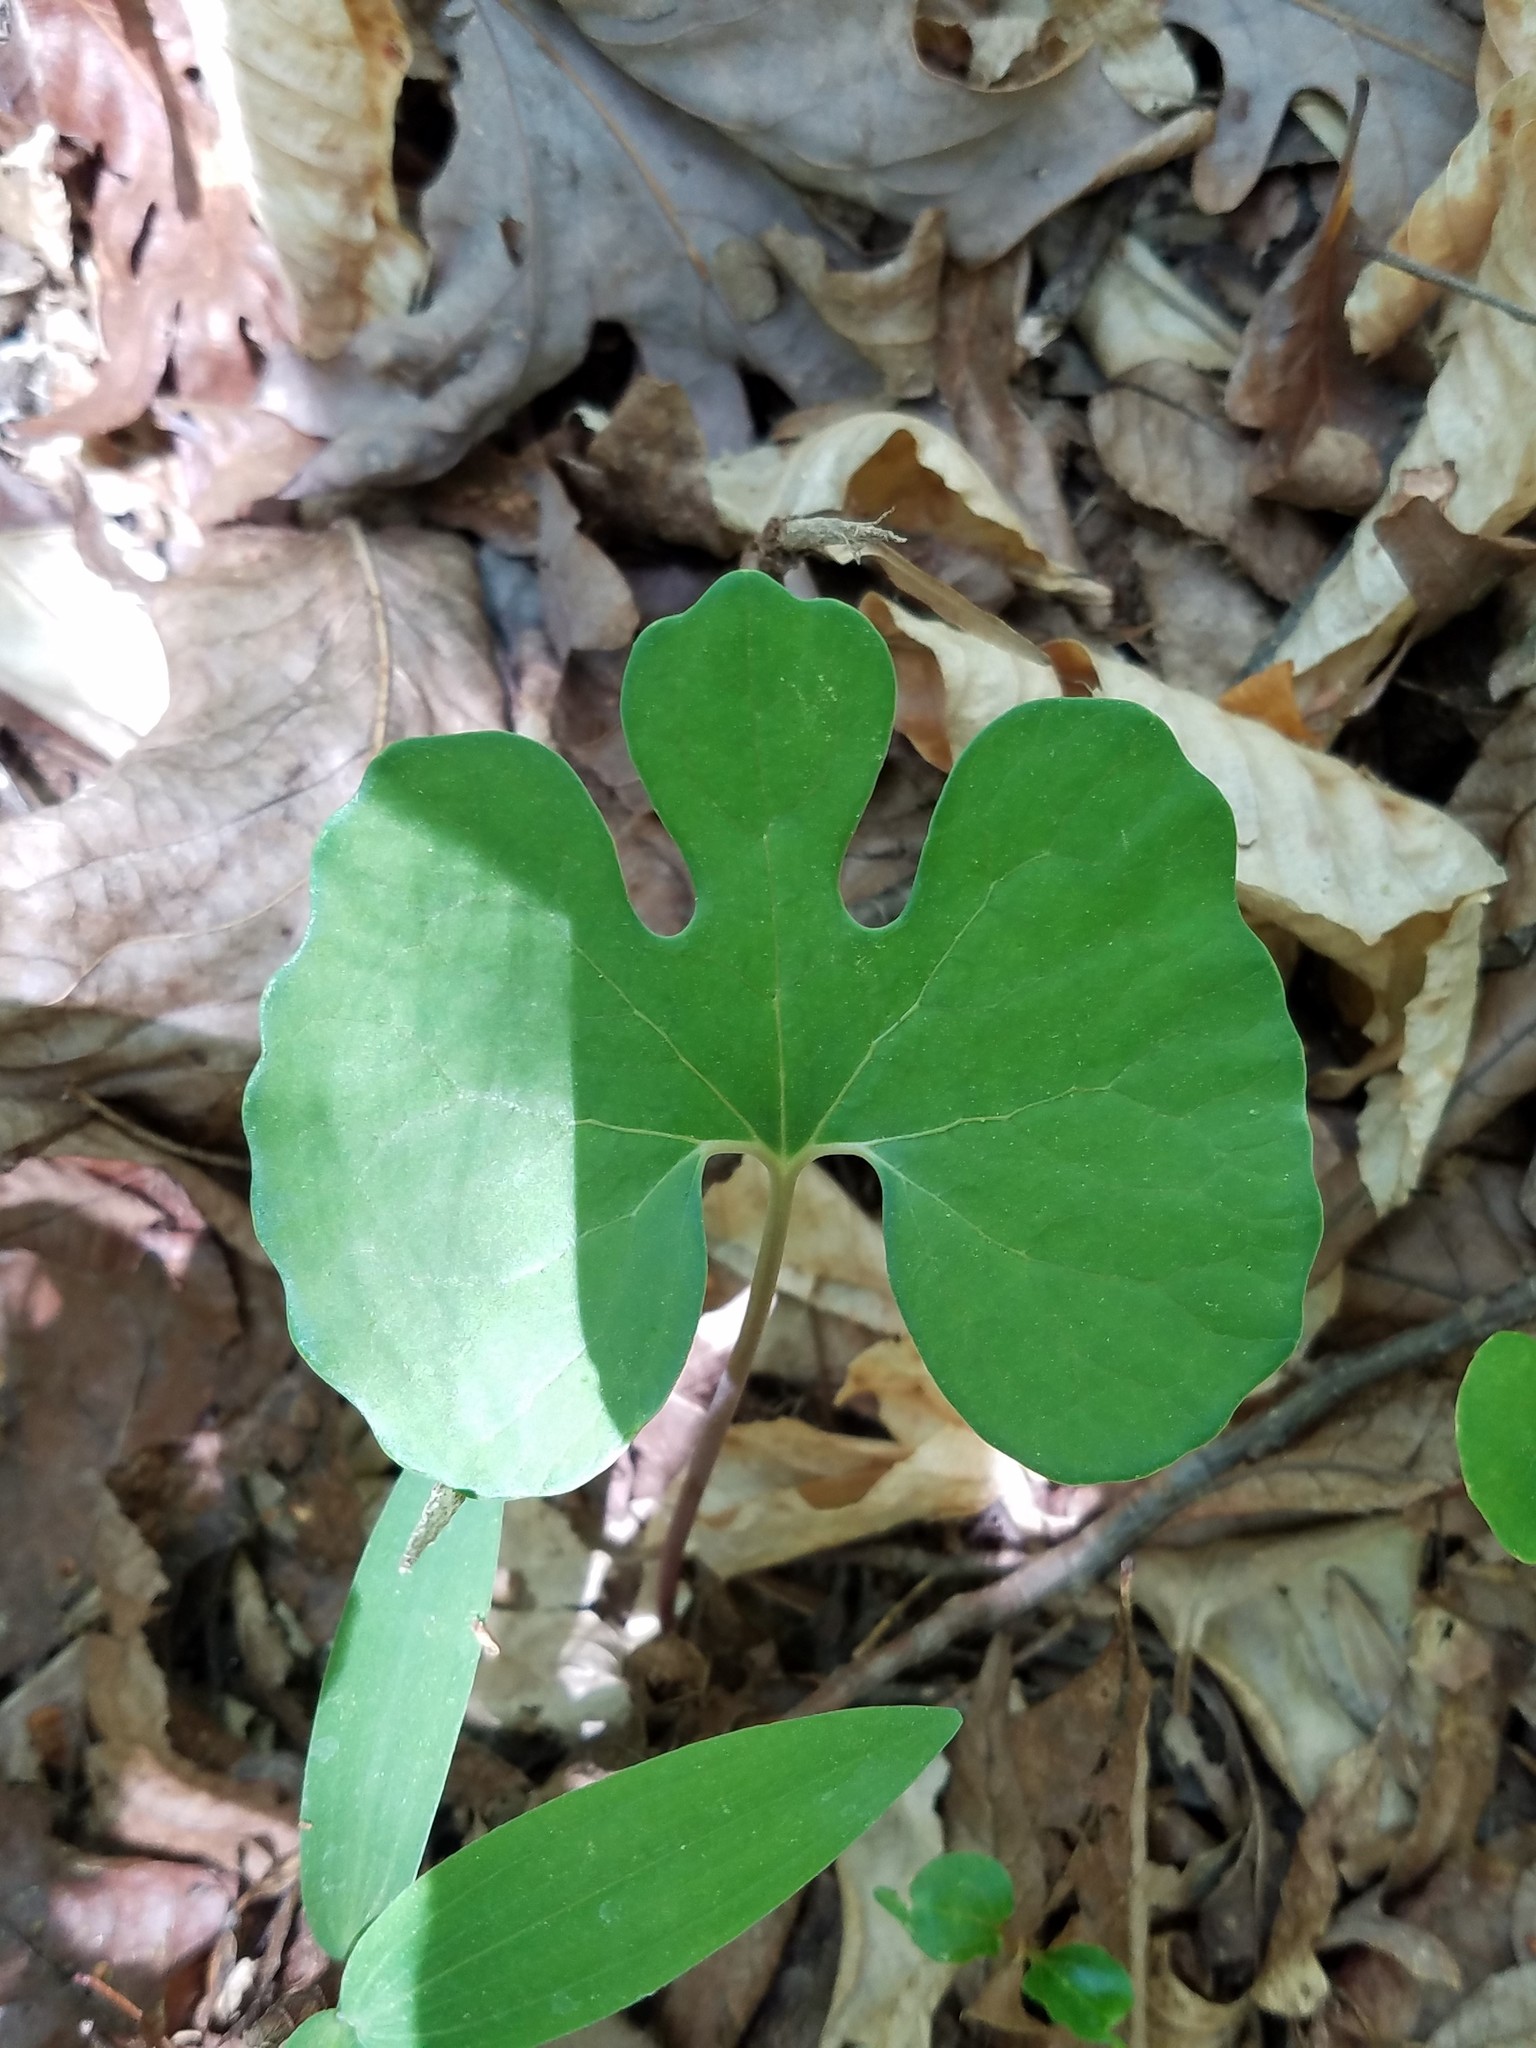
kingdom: Plantae
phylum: Tracheophyta
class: Magnoliopsida
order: Ranunculales
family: Papaveraceae
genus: Sanguinaria
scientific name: Sanguinaria canadensis
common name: Bloodroot
